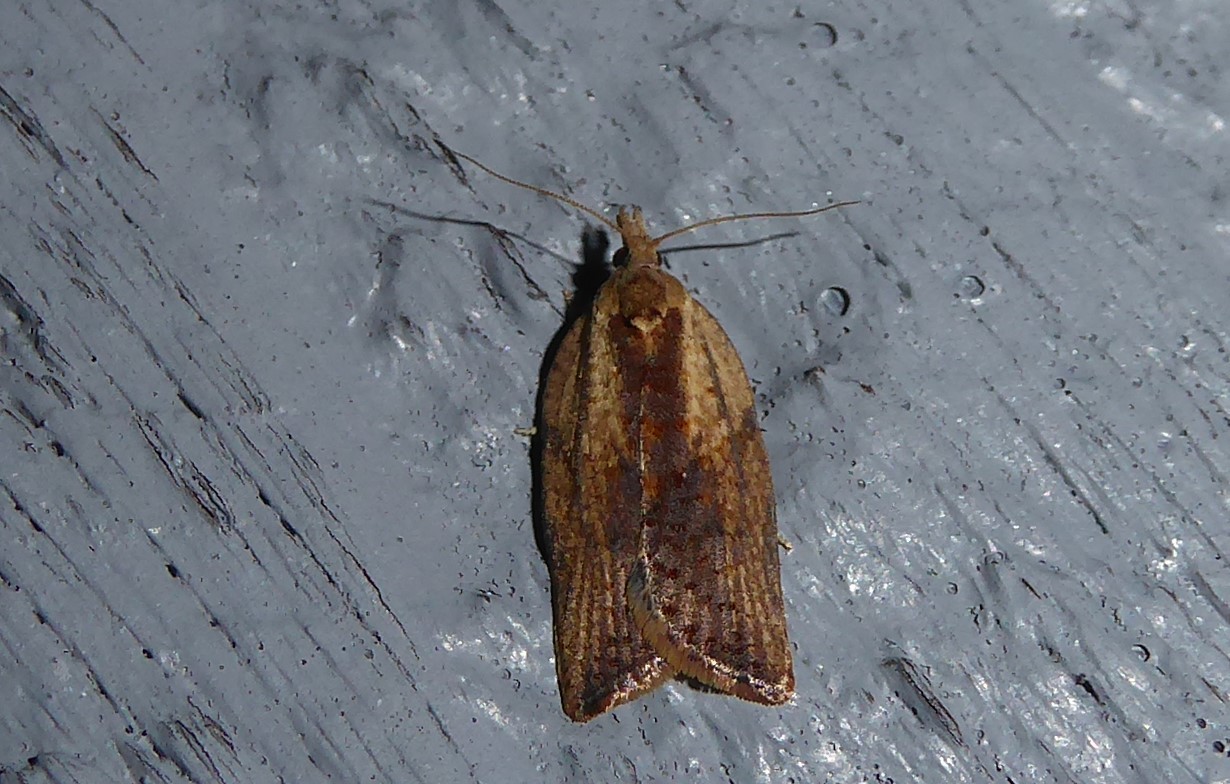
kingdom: Animalia
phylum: Arthropoda
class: Insecta
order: Lepidoptera
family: Tortricidae
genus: Epiphyas
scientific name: Epiphyas postvittana
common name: Light brown apple moth
